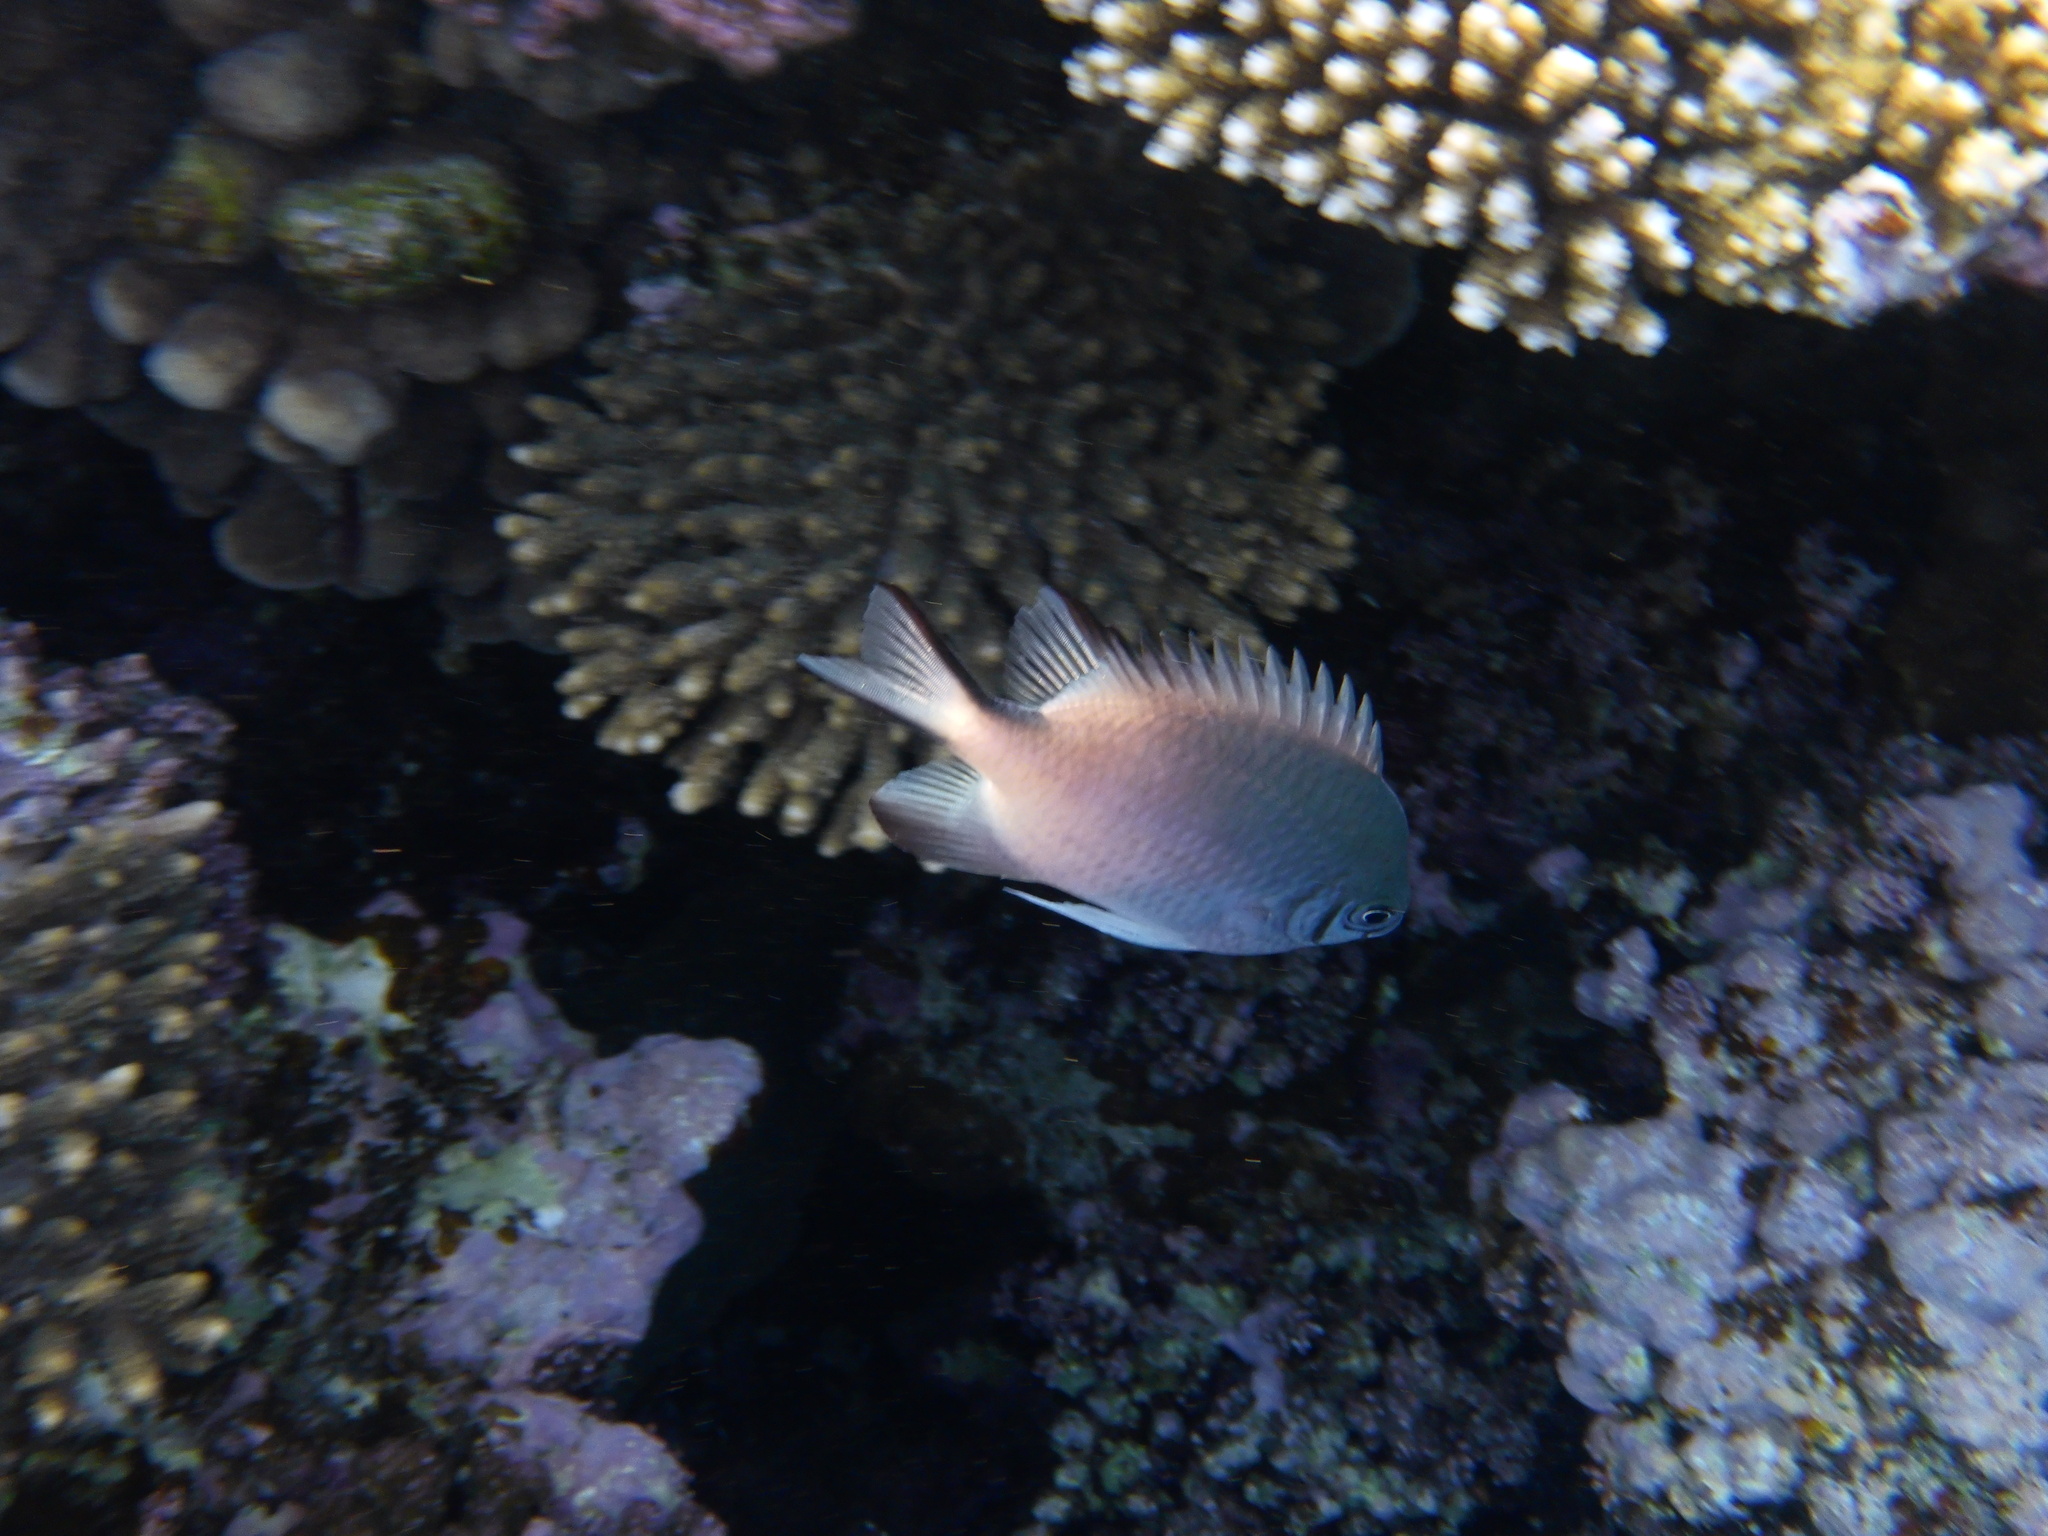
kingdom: Animalia
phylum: Chordata
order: Perciformes
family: Pomacentridae
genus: Amblyglyphidodon
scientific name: Amblyglyphidodon indicus
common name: Maldives damselfish
